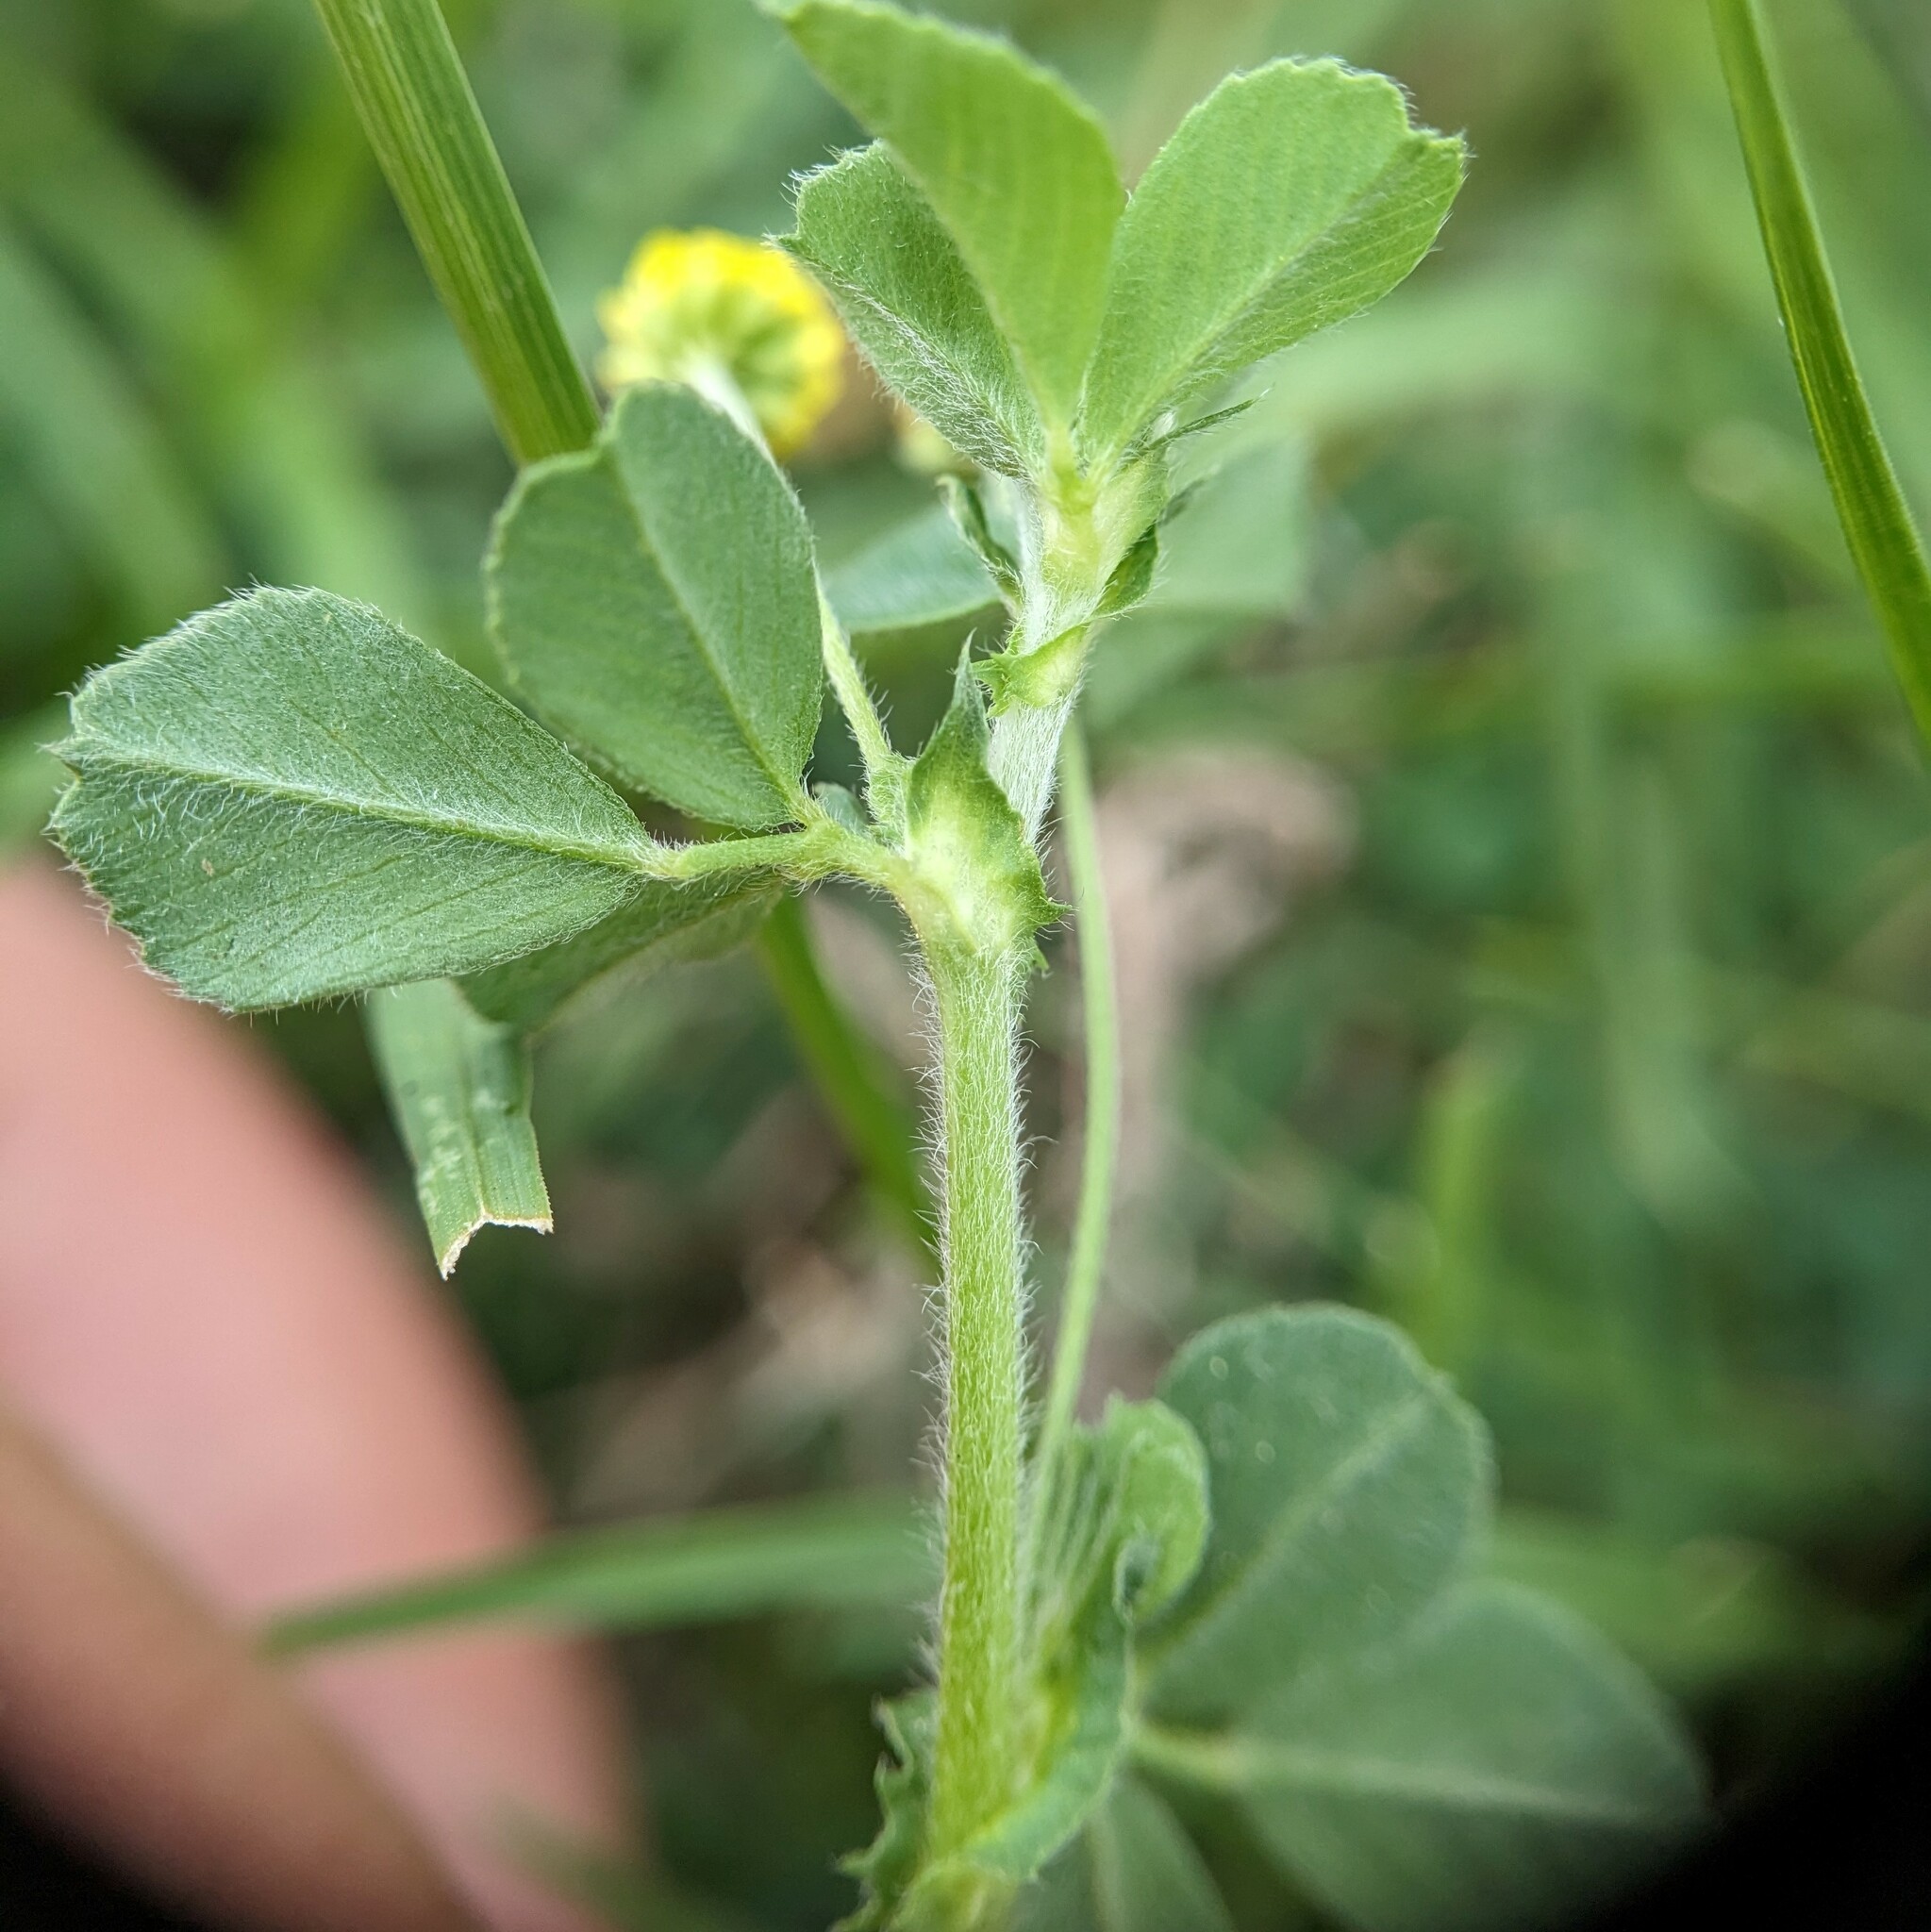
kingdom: Plantae
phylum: Tracheophyta
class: Magnoliopsida
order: Fabales
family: Fabaceae
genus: Medicago
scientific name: Medicago lupulina
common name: Black medick
